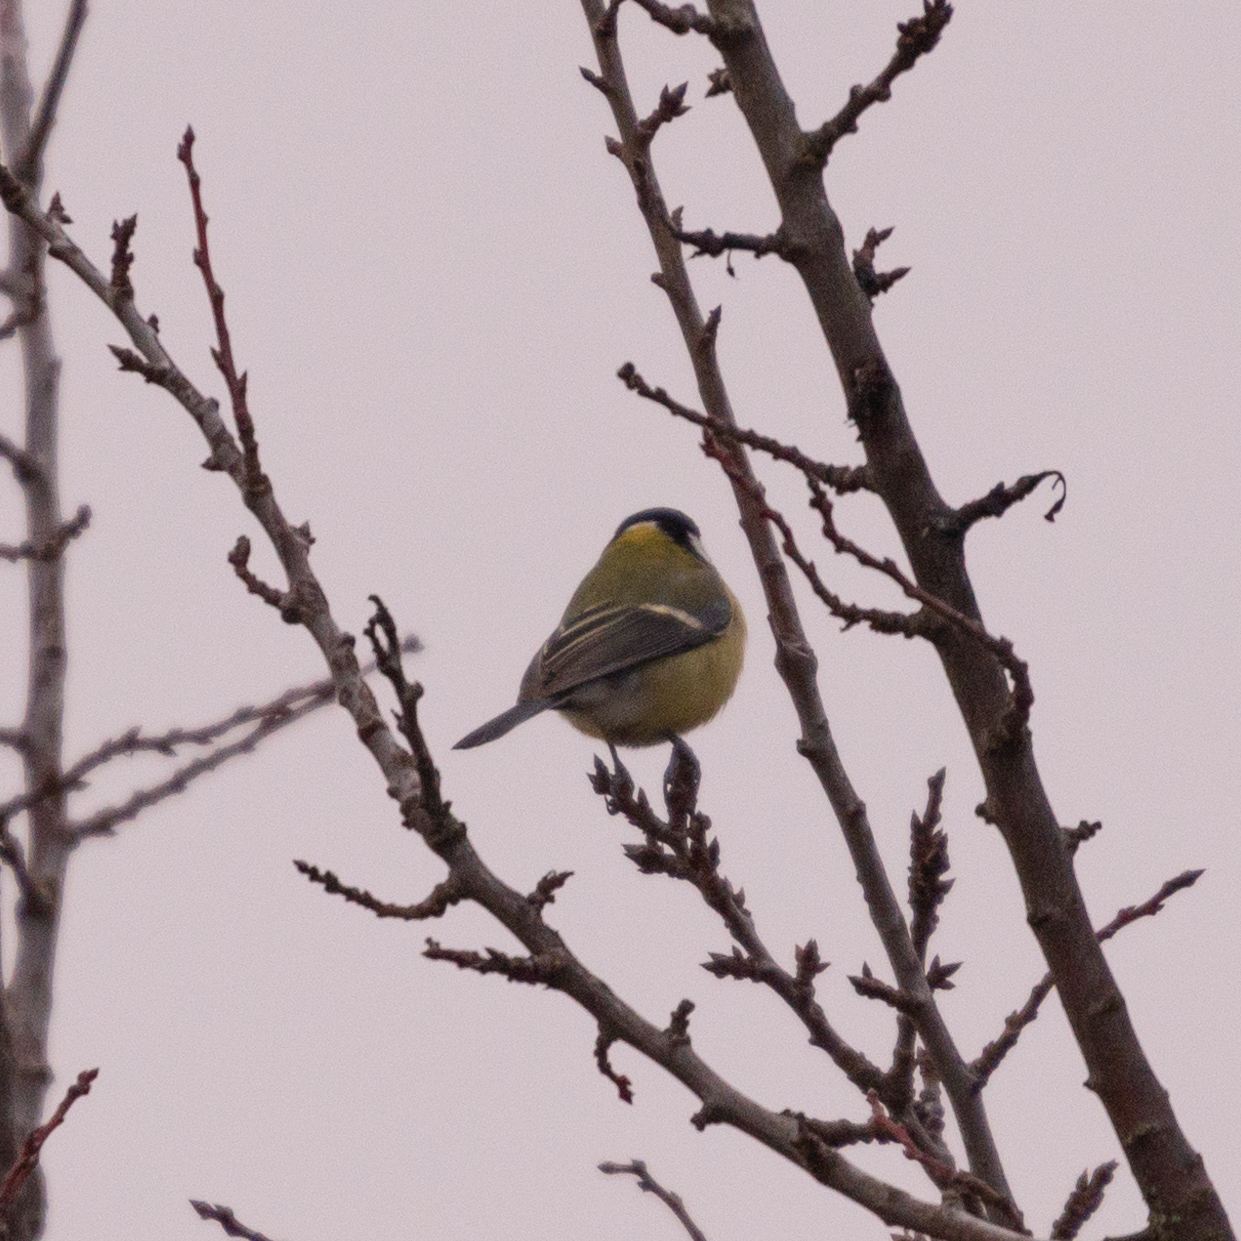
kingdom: Animalia
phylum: Chordata
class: Aves
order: Passeriformes
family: Paridae
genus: Parus
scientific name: Parus major
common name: Great tit
